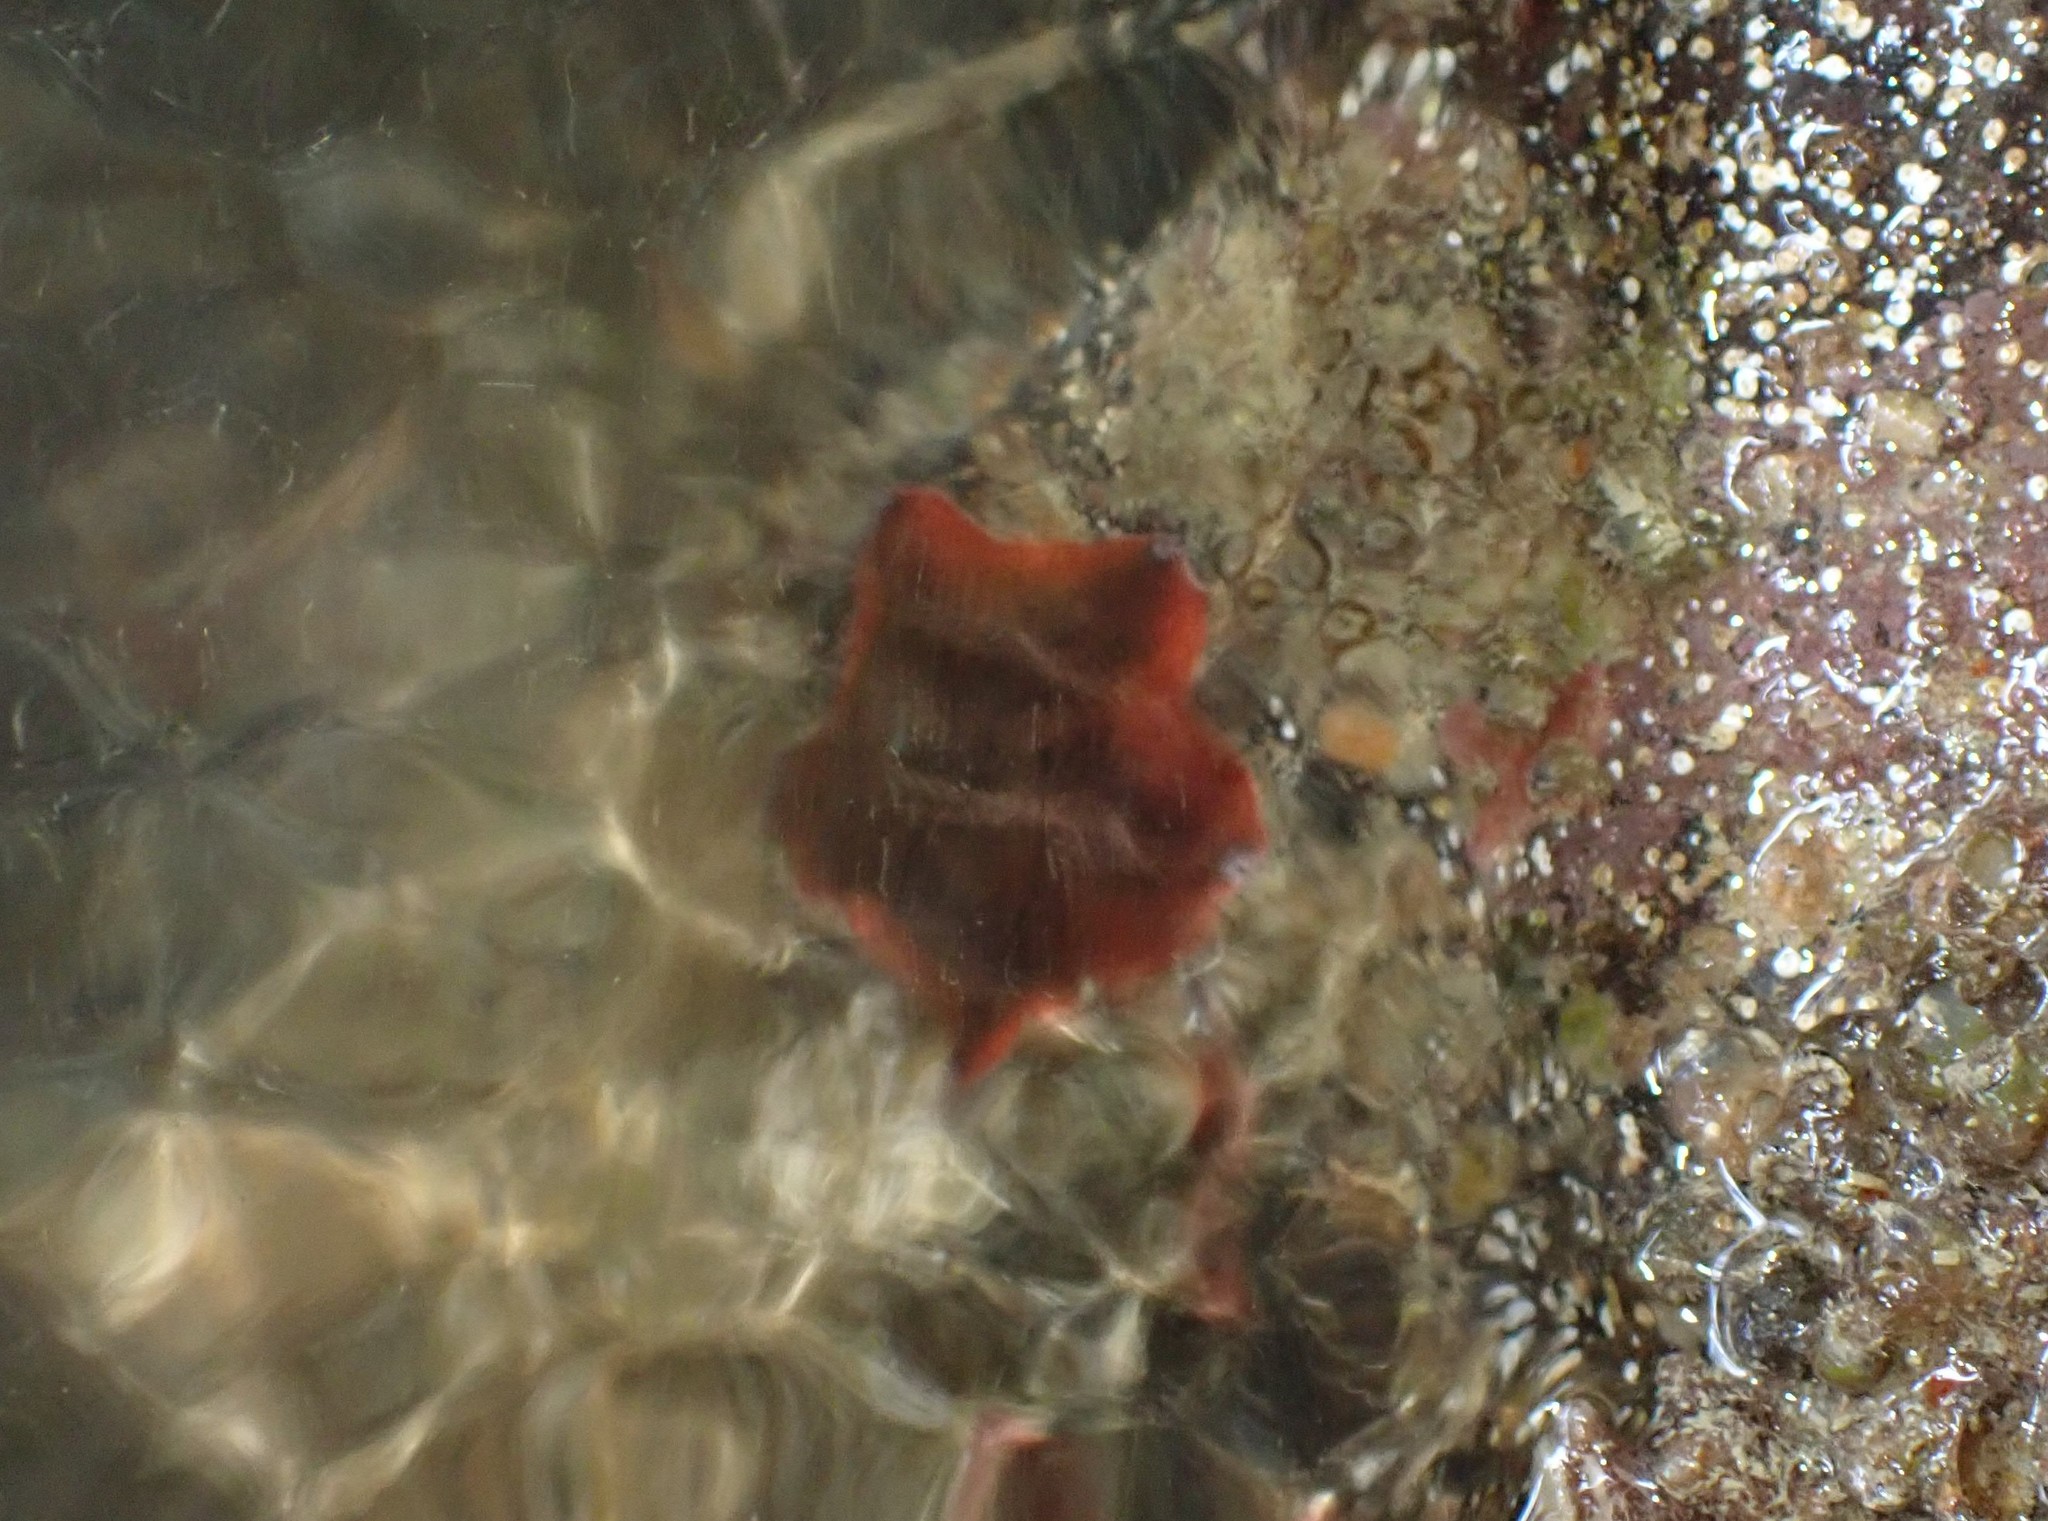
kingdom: Animalia
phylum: Echinodermata
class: Asteroidea
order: Valvatida
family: Asterinidae
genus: Patiriella
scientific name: Patiriella regularis
